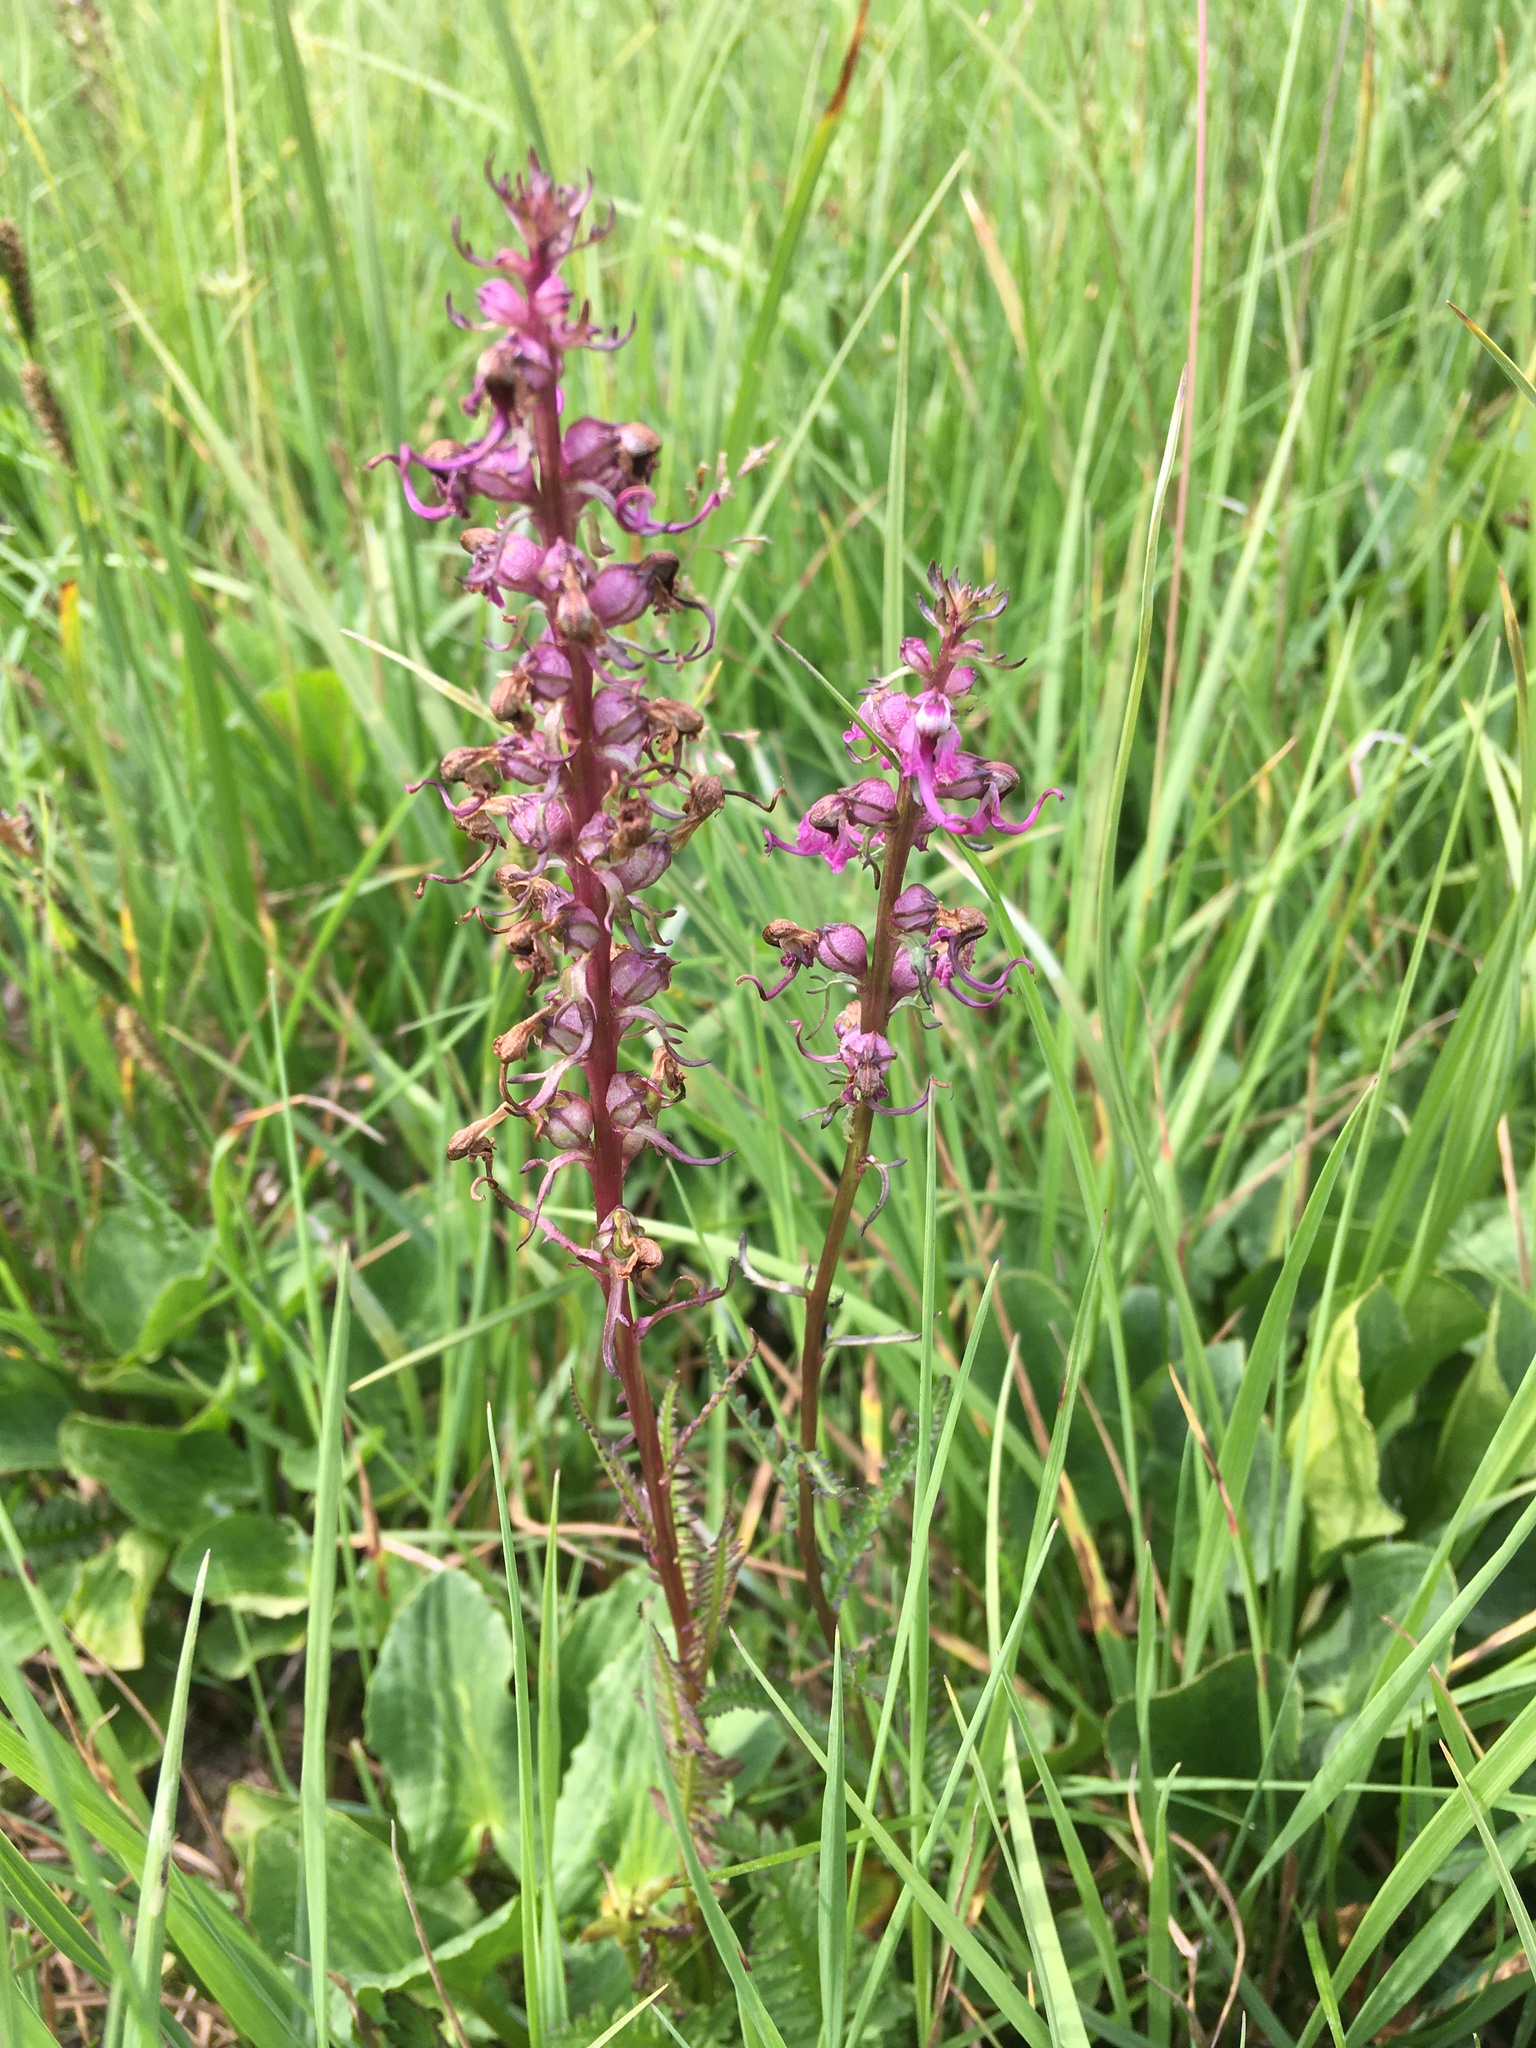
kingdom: Plantae
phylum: Tracheophyta
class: Magnoliopsida
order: Lamiales
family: Orobanchaceae
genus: Pedicularis
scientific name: Pedicularis groenlandica
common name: Elephant's-head
